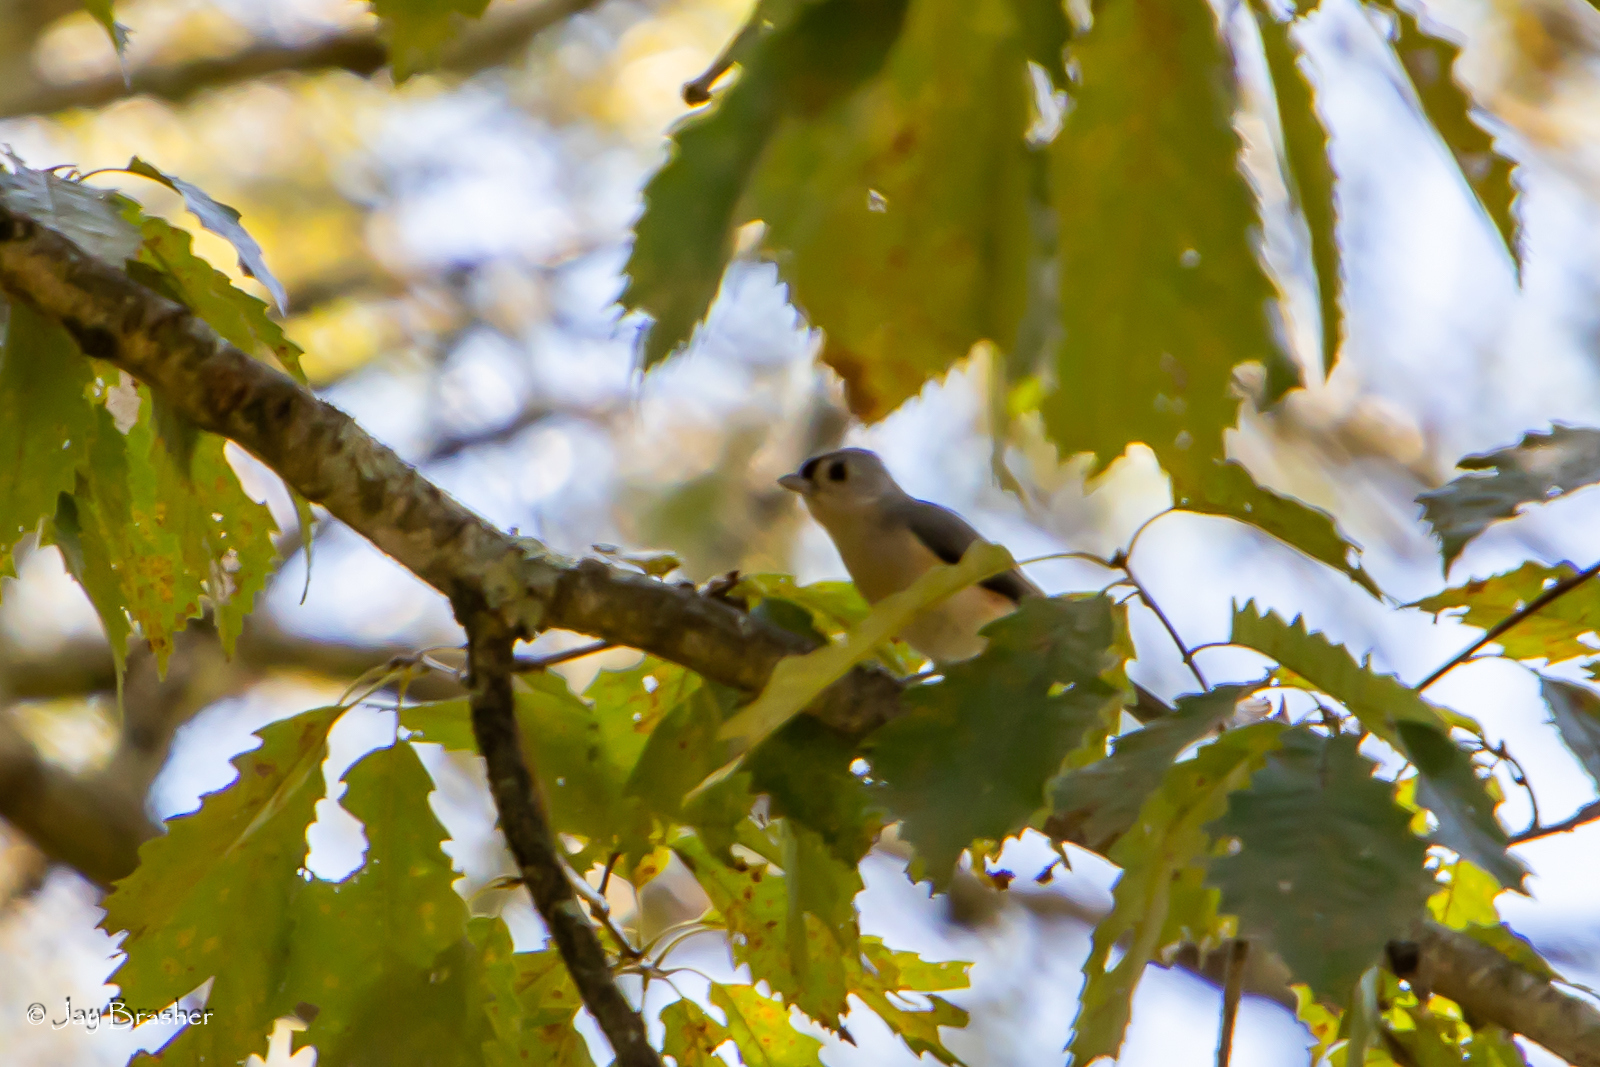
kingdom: Animalia
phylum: Chordata
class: Aves
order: Passeriformes
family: Paridae
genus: Baeolophus
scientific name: Baeolophus bicolor
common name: Tufted titmouse
